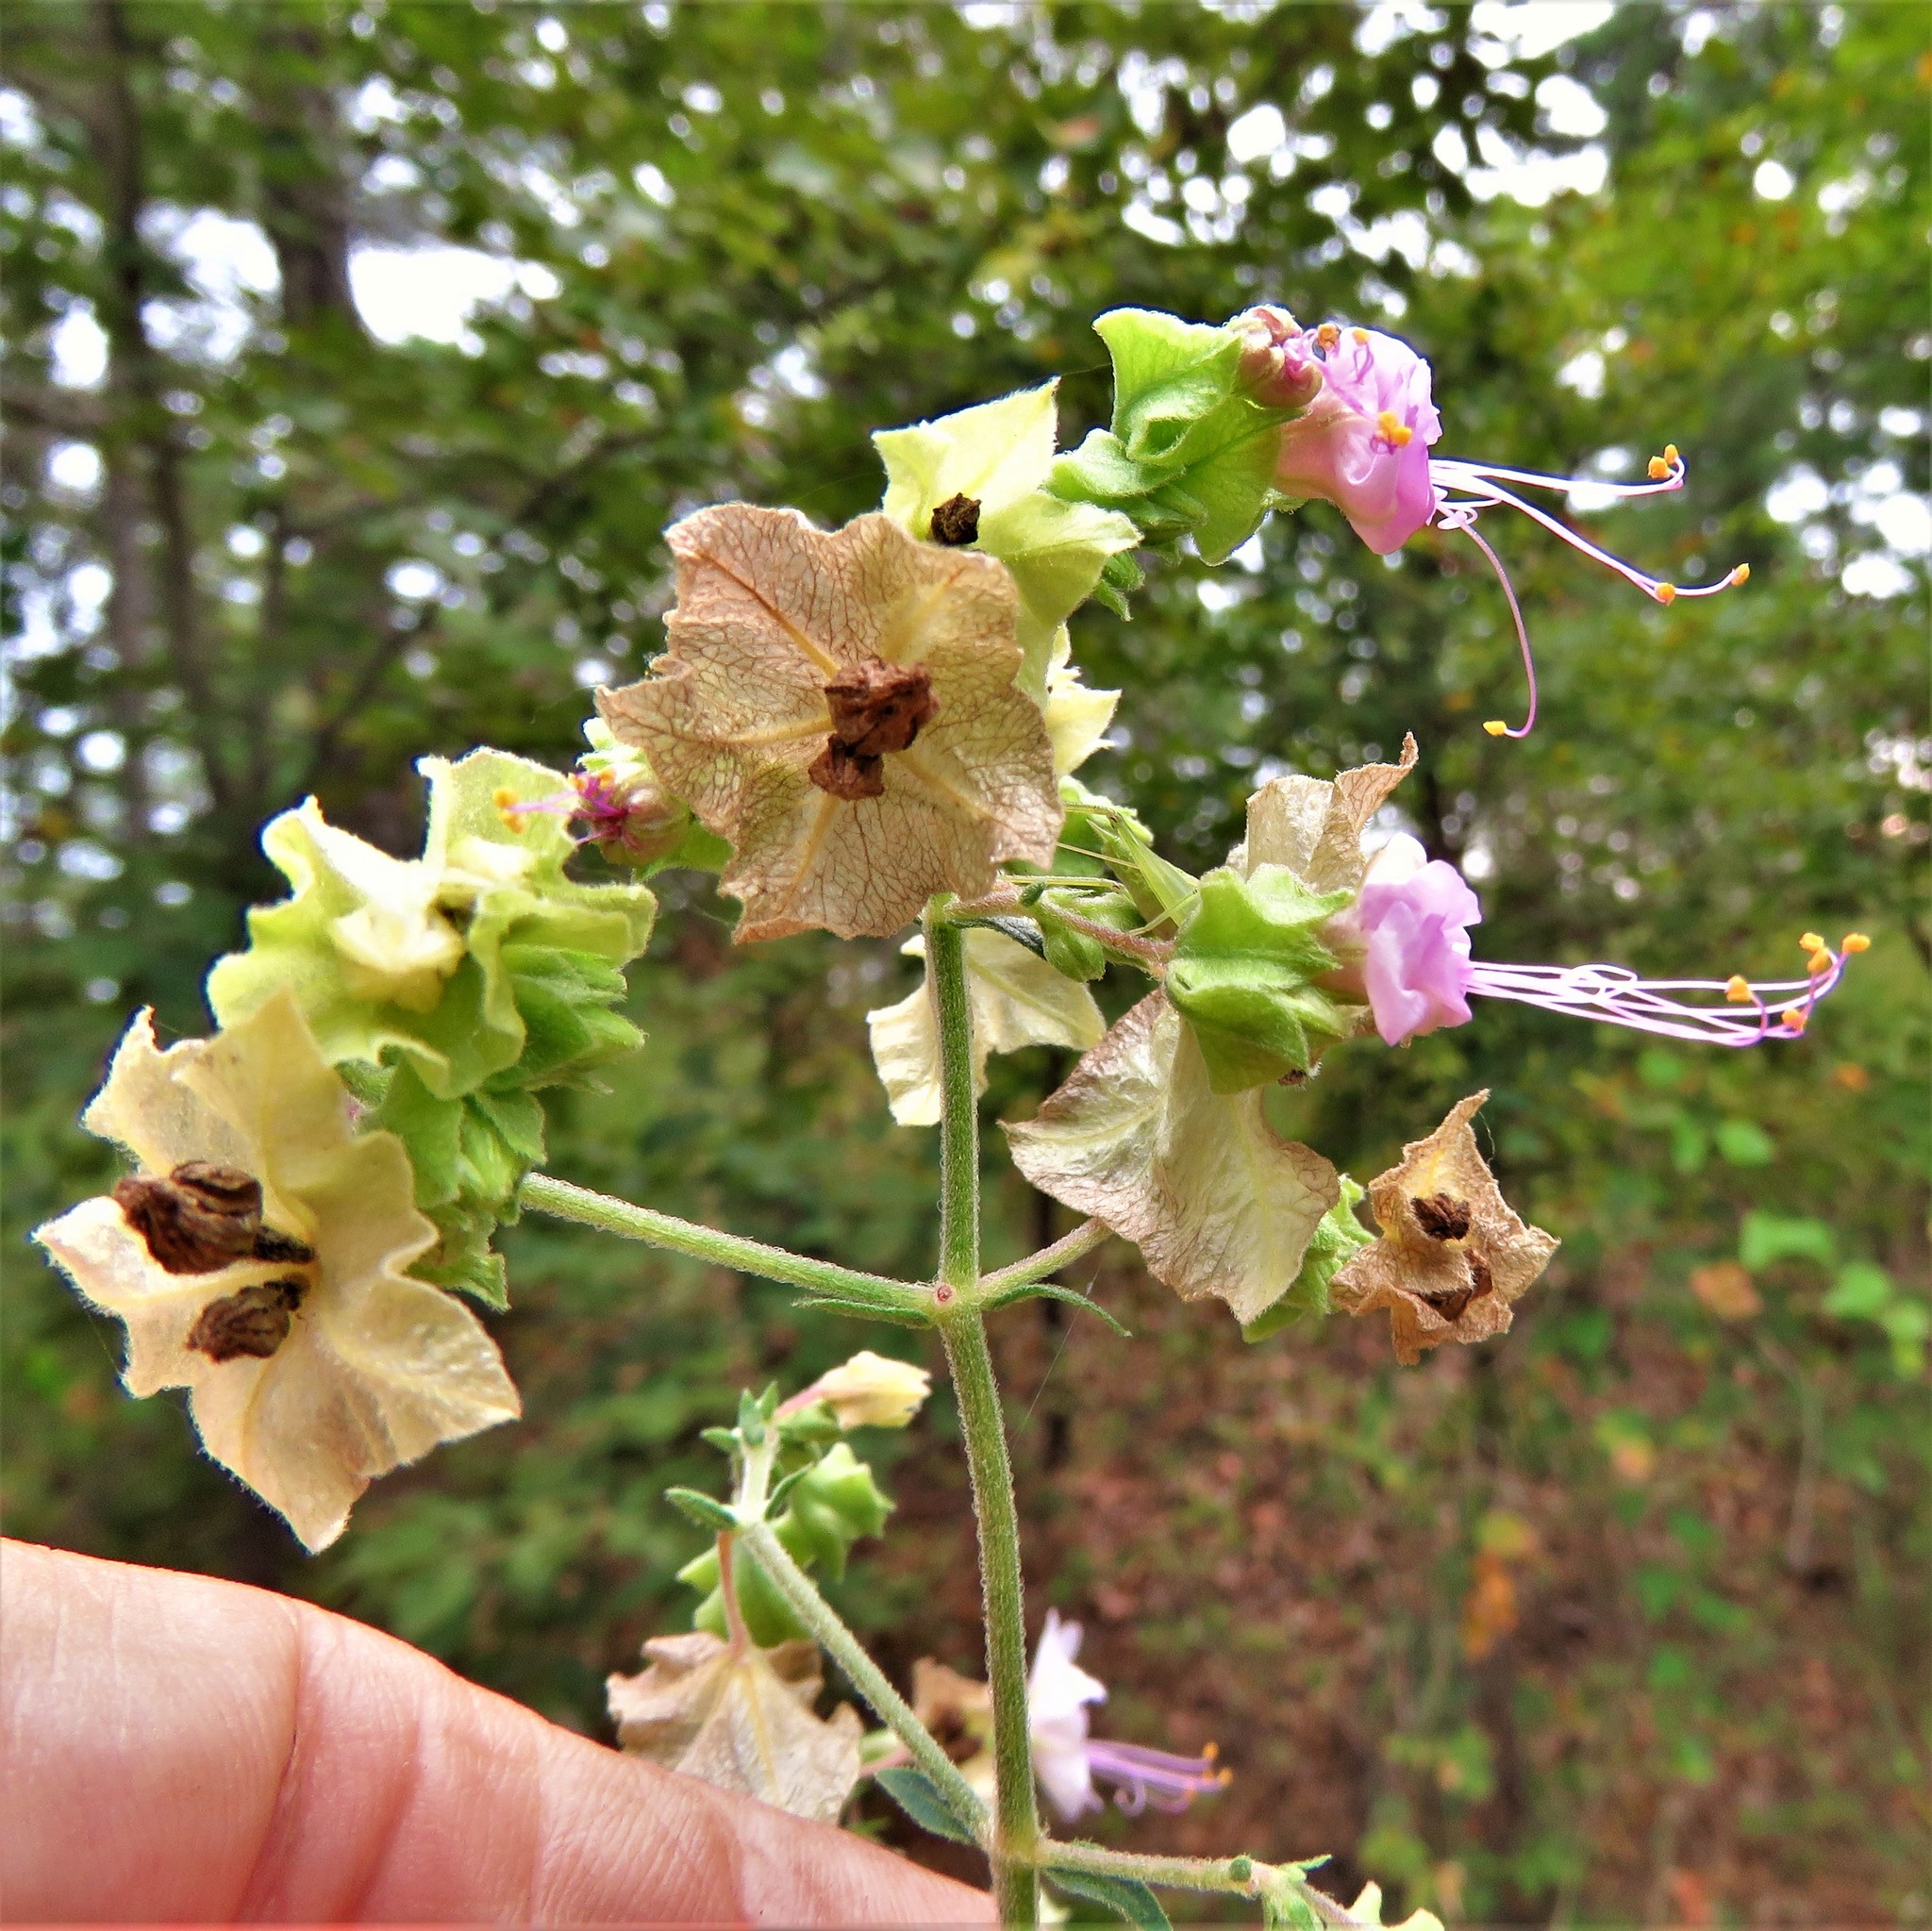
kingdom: Plantae
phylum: Tracheophyta
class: Magnoliopsida
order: Caryophyllales
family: Nyctaginaceae
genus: Mirabilis
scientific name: Mirabilis albida
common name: Hairy four-o'clock
